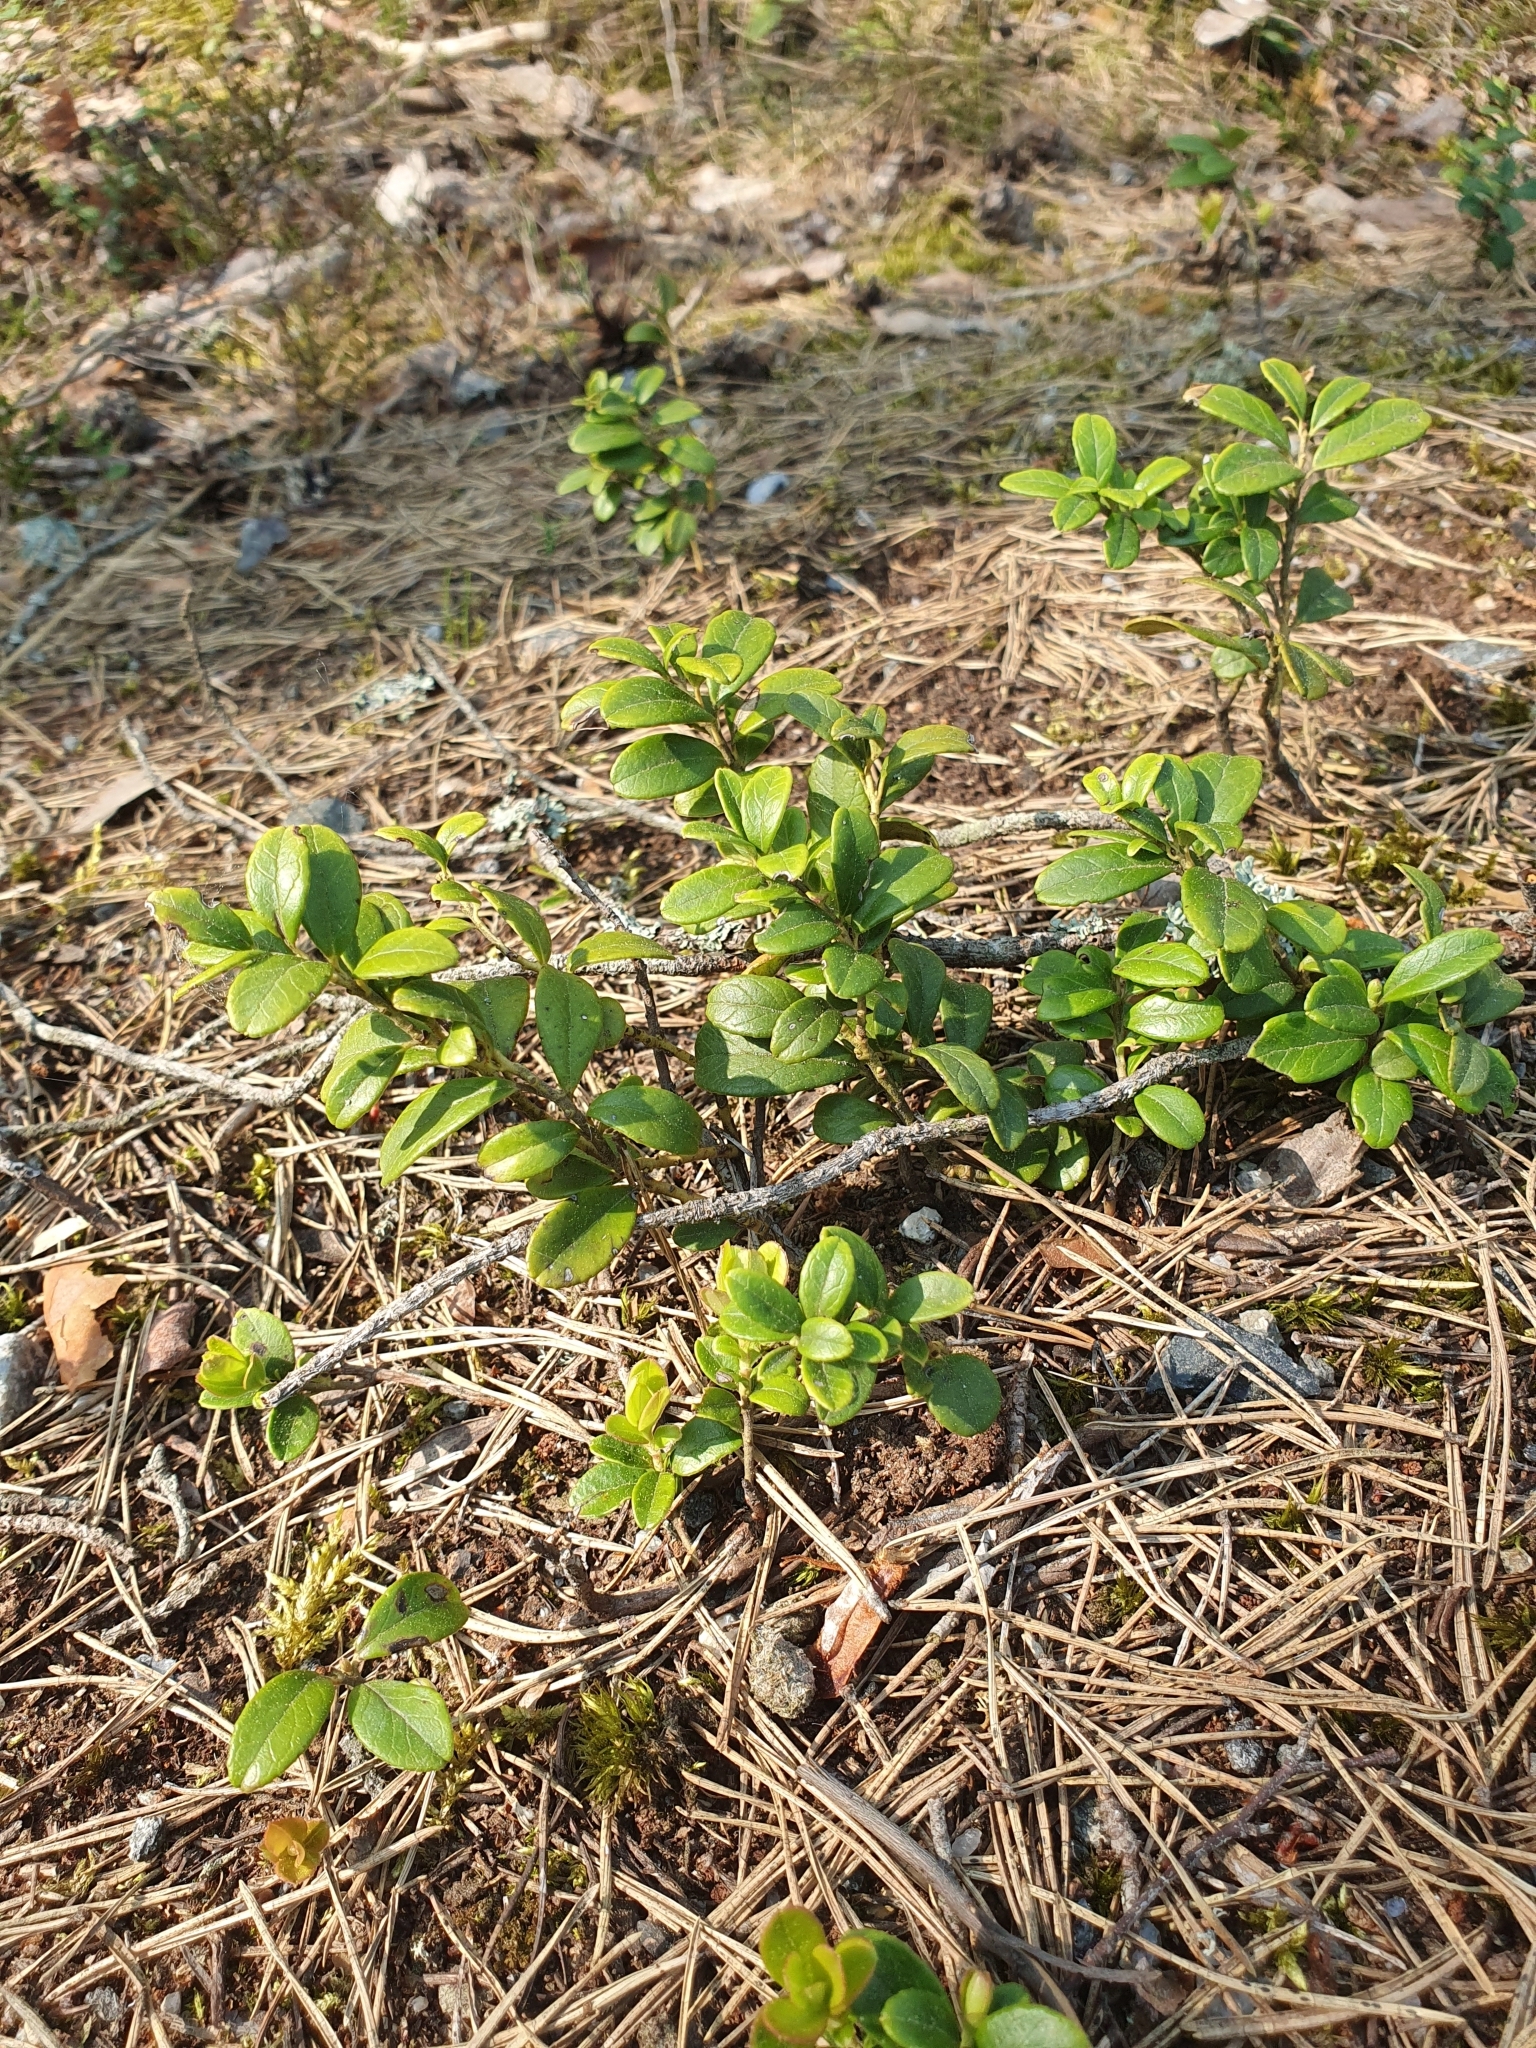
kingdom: Plantae
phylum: Tracheophyta
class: Magnoliopsida
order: Ericales
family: Ericaceae
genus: Vaccinium
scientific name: Vaccinium vitis-idaea
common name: Cowberry
